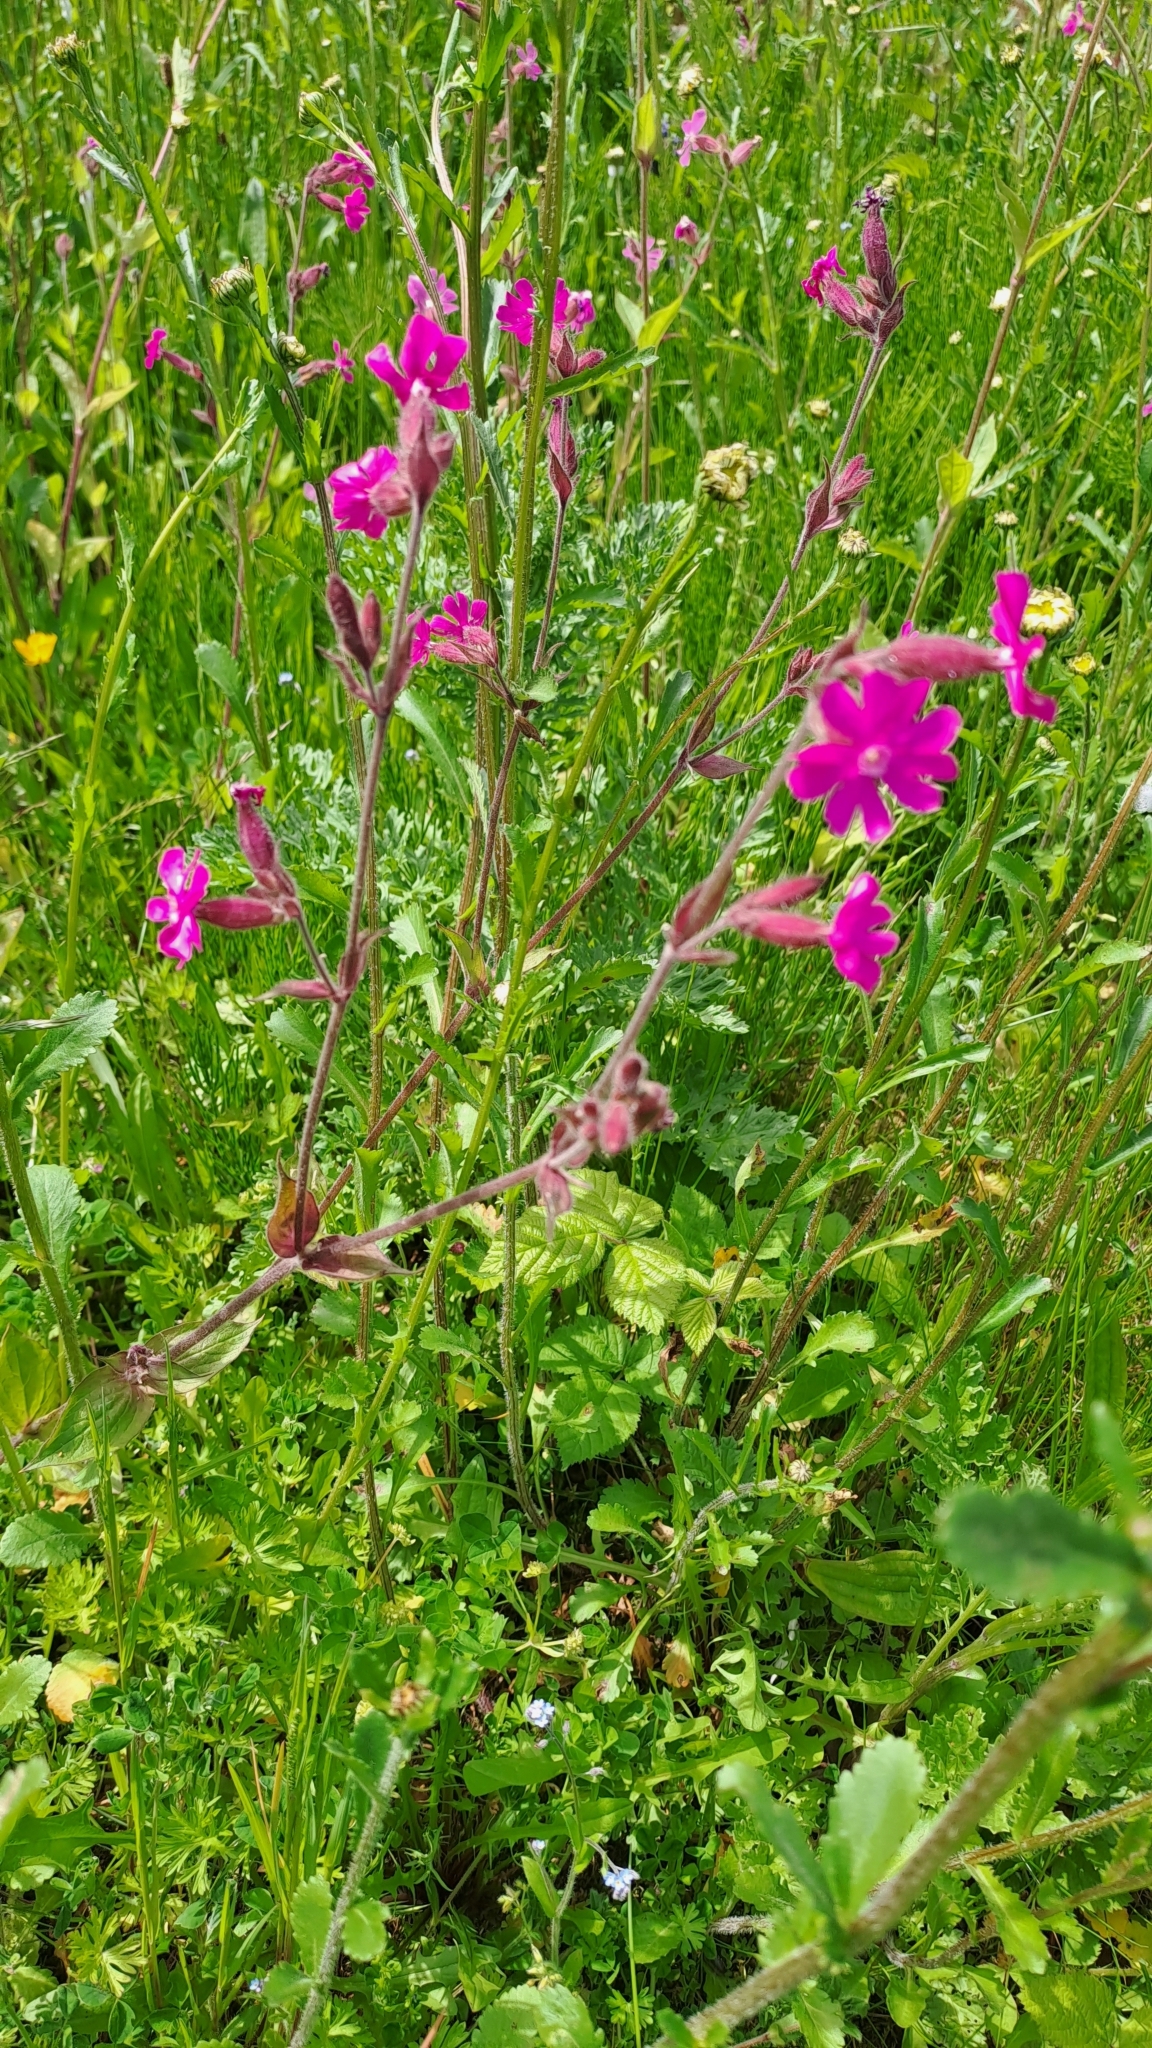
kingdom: Plantae
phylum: Tracheophyta
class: Magnoliopsida
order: Caryophyllales
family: Caryophyllaceae
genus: Silene
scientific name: Silene dioica
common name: Red campion
